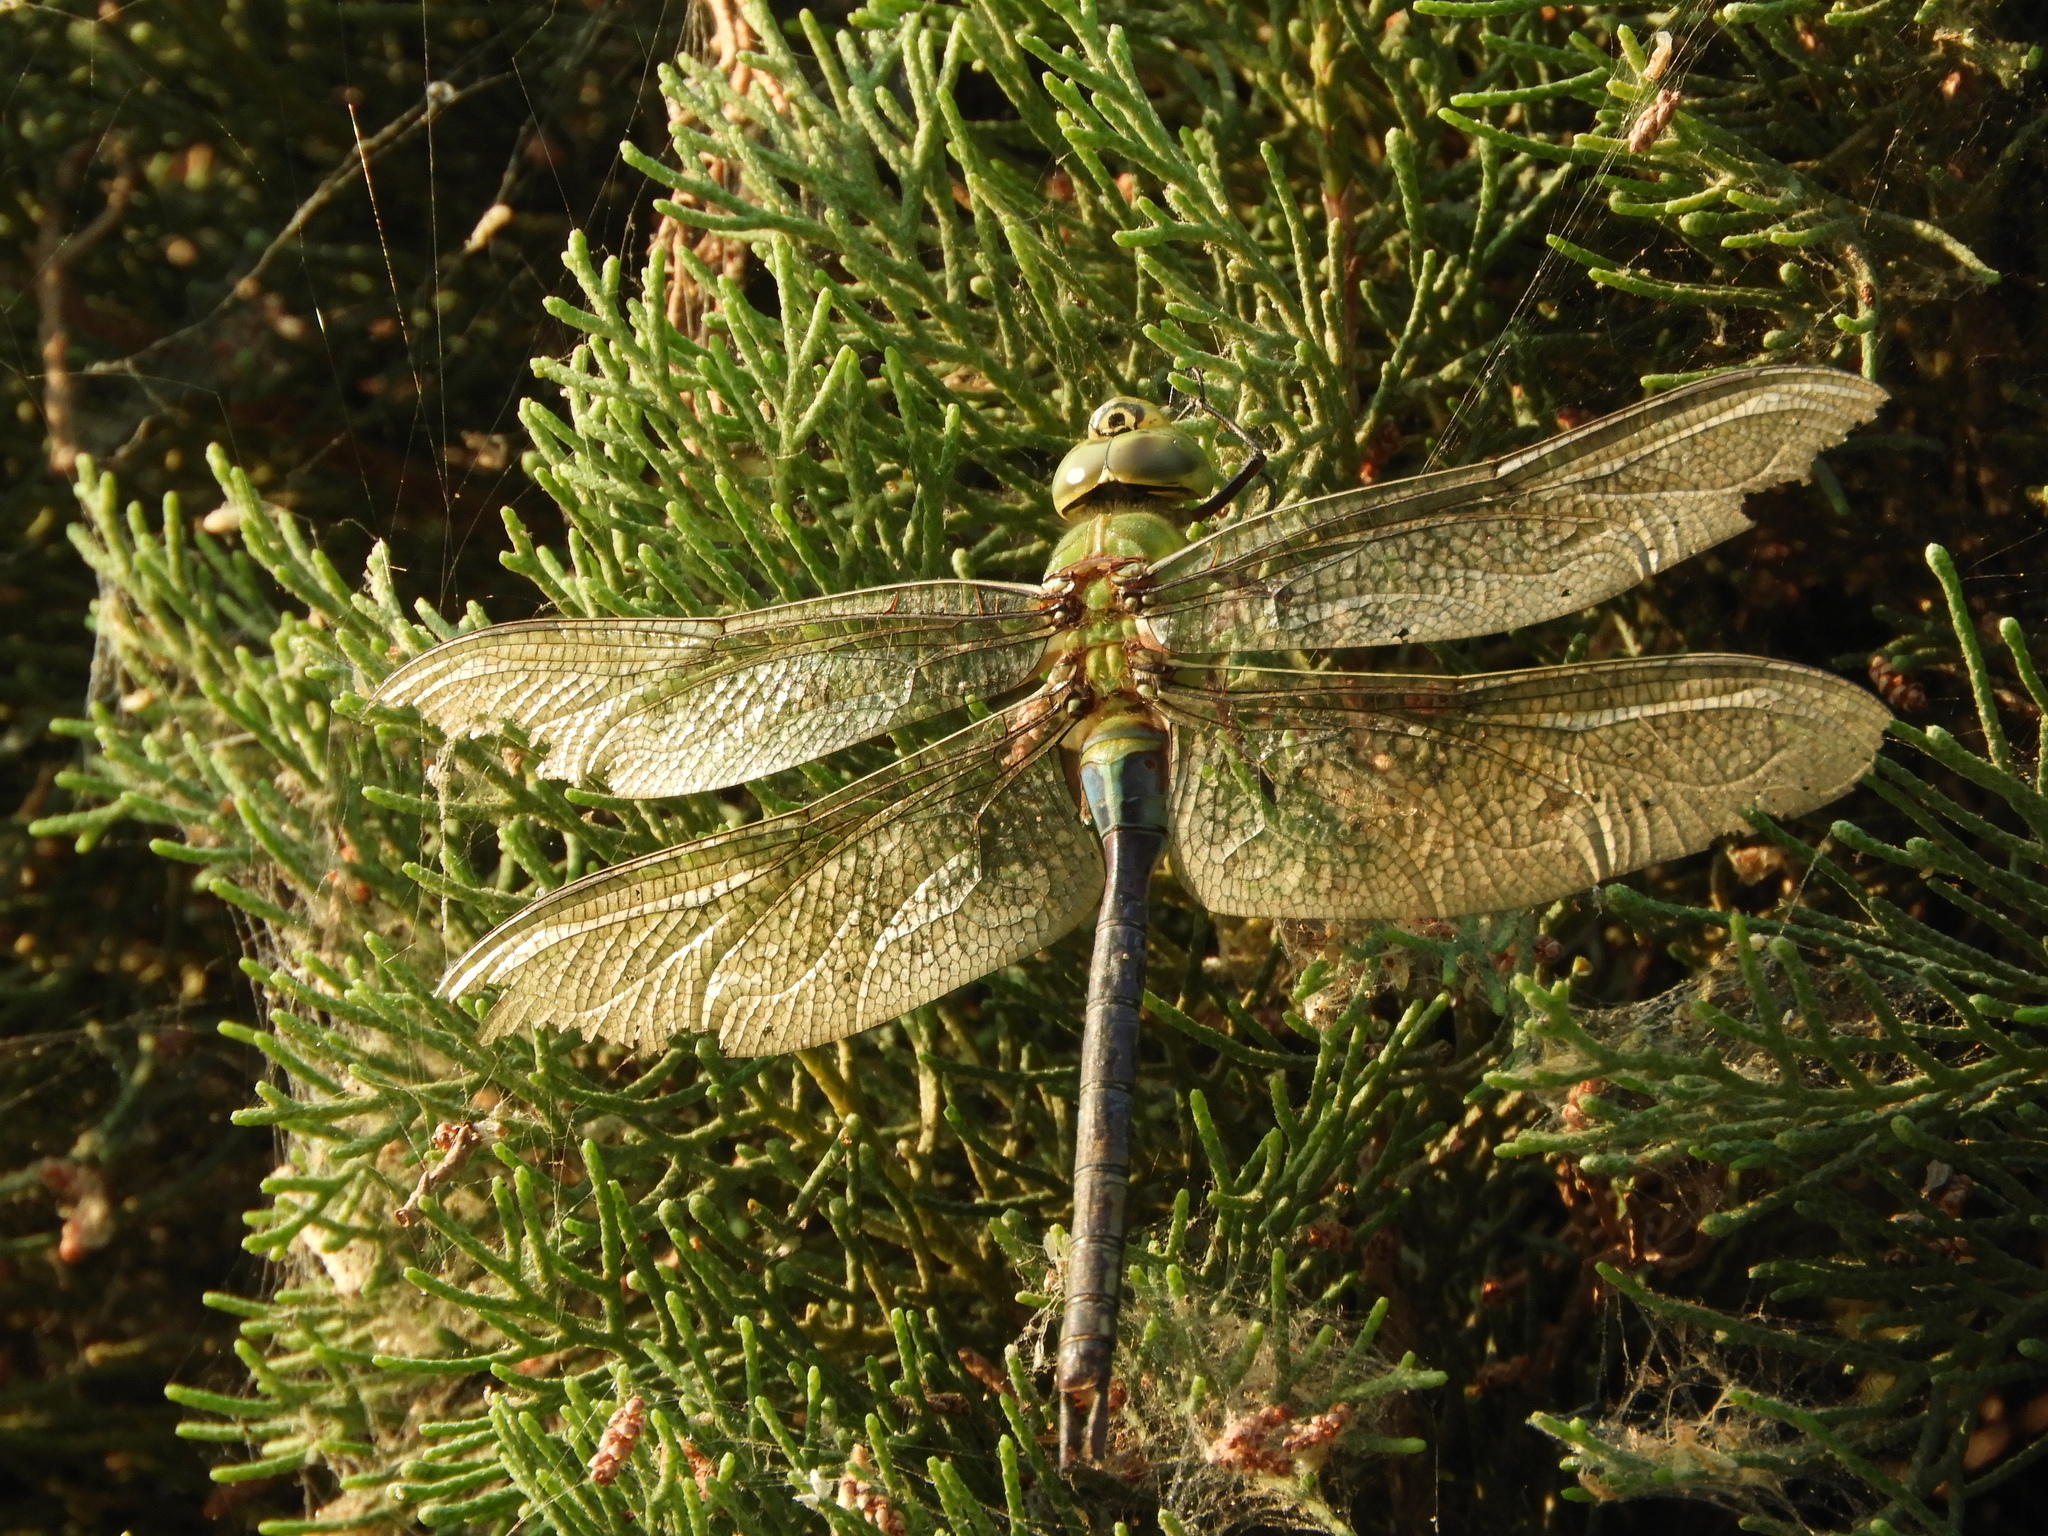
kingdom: Animalia
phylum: Arthropoda
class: Insecta
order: Odonata
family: Aeshnidae
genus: Anax
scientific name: Anax junius
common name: Common green darner
